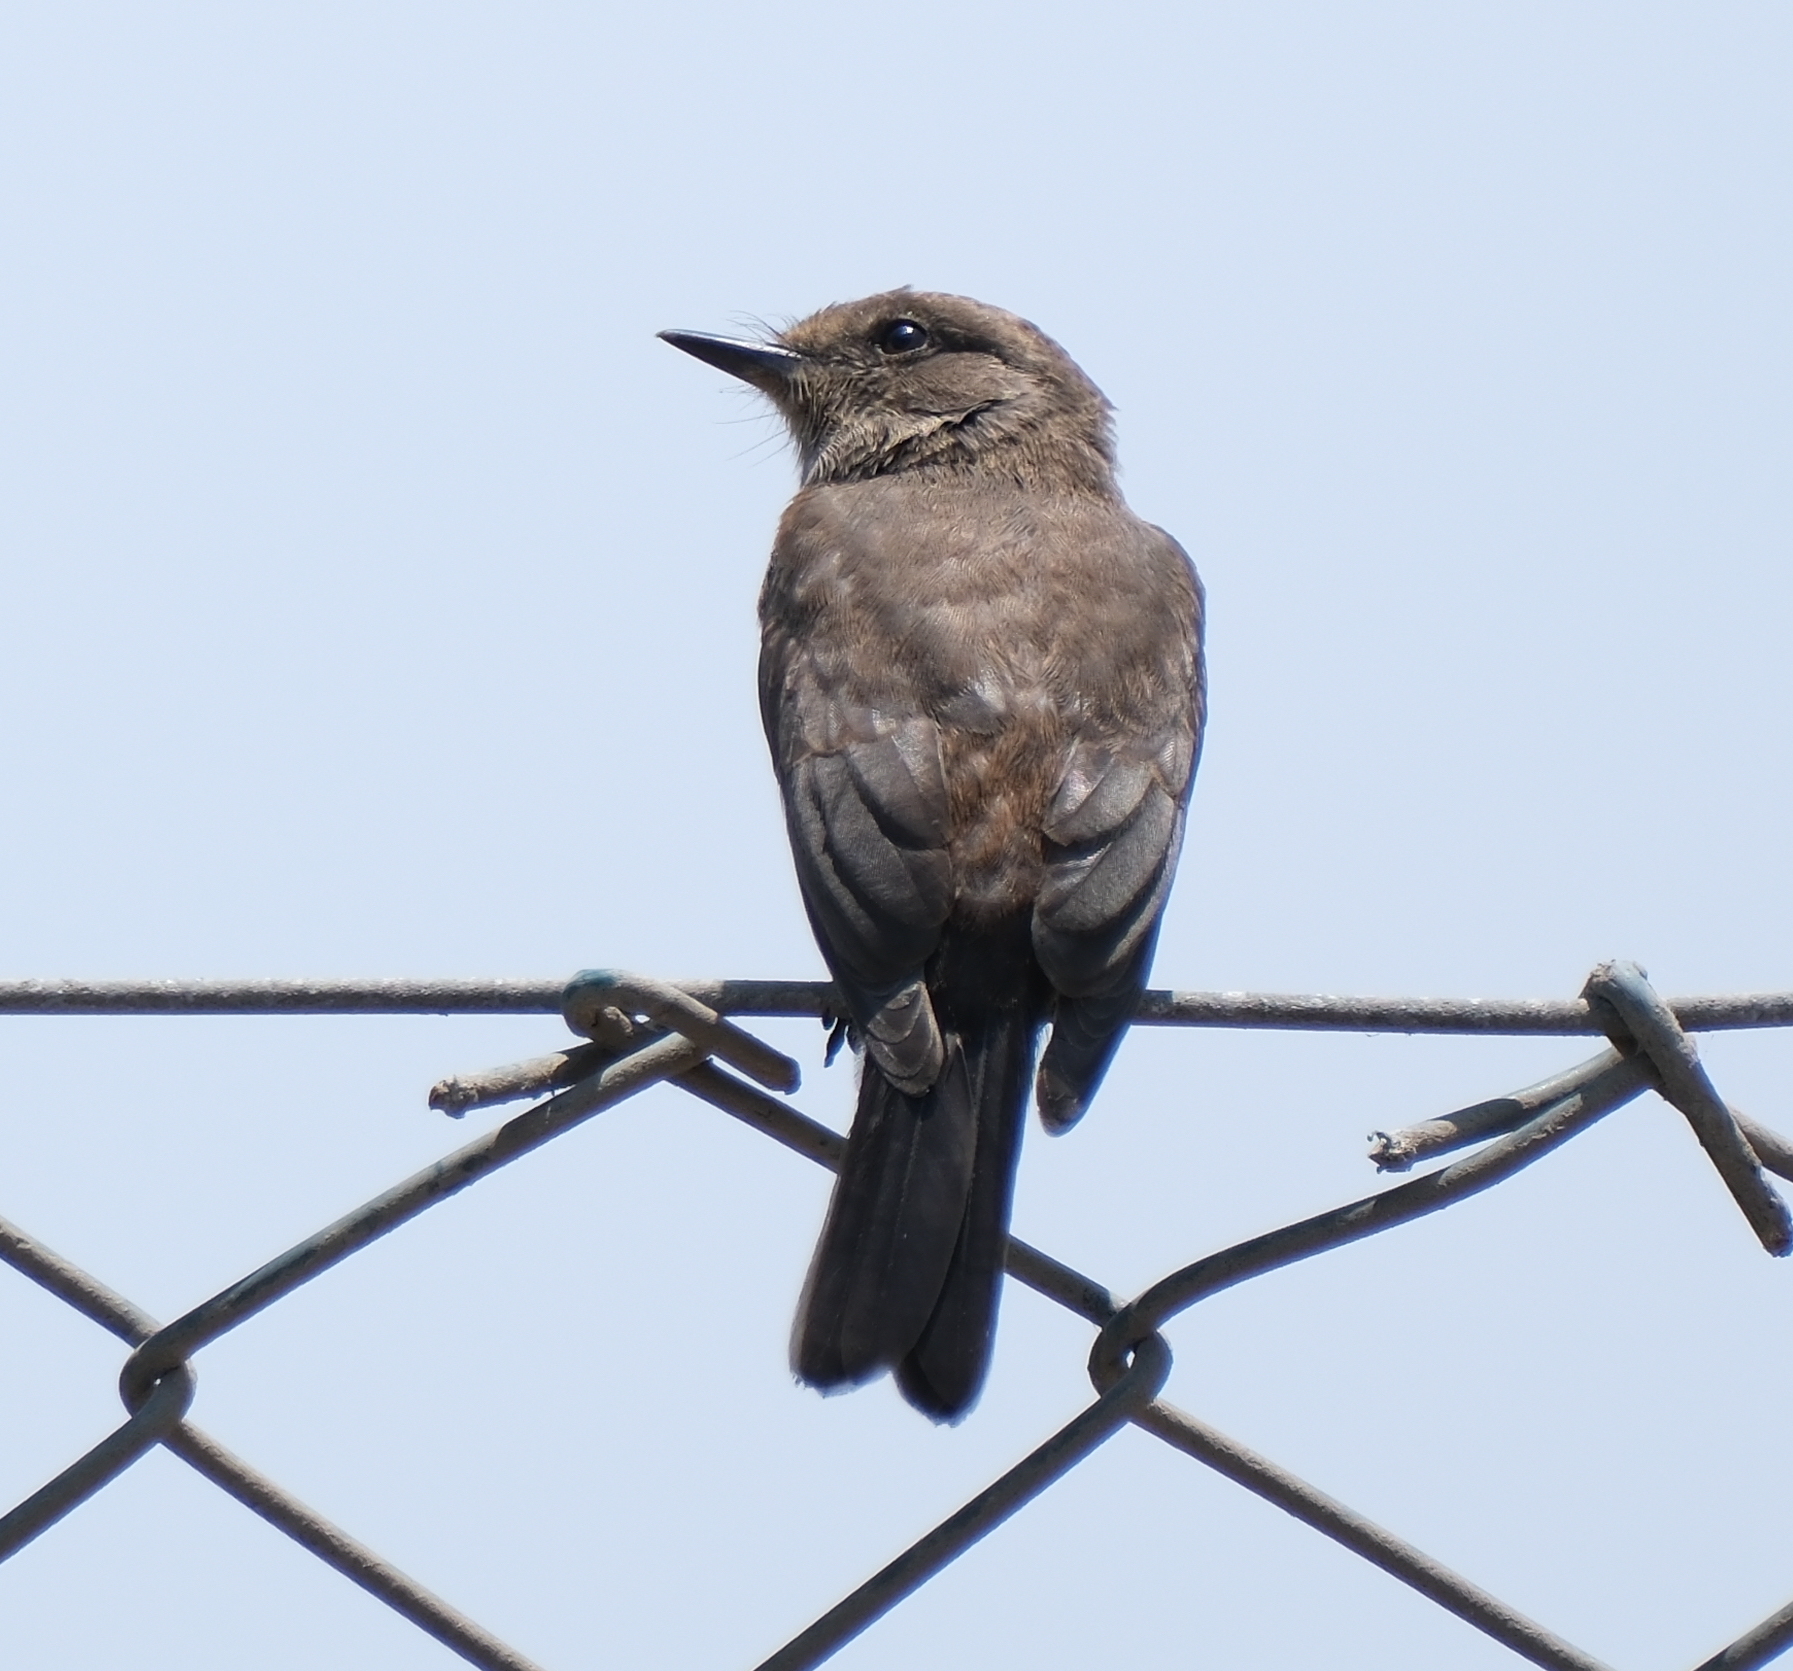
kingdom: Animalia
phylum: Chordata
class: Aves
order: Passeriformes
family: Tyrannidae
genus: Pyrocephalus
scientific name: Pyrocephalus rubinus
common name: Vermilion flycatcher
